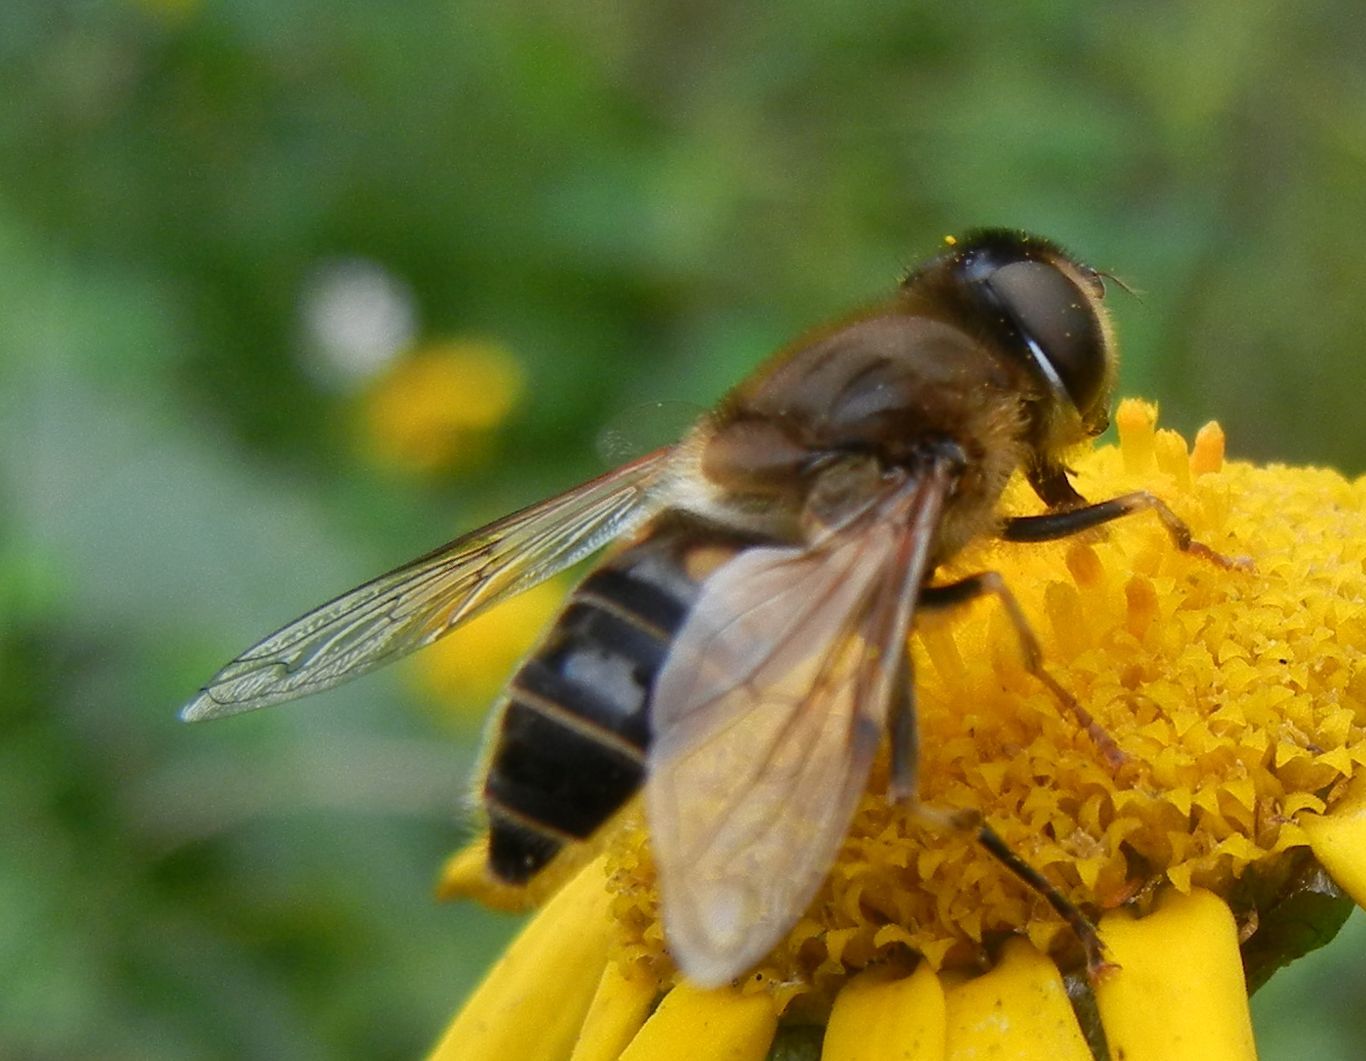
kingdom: Animalia
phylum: Arthropoda
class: Insecta
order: Diptera
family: Syrphidae
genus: Eristalis
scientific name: Eristalis pertinax
